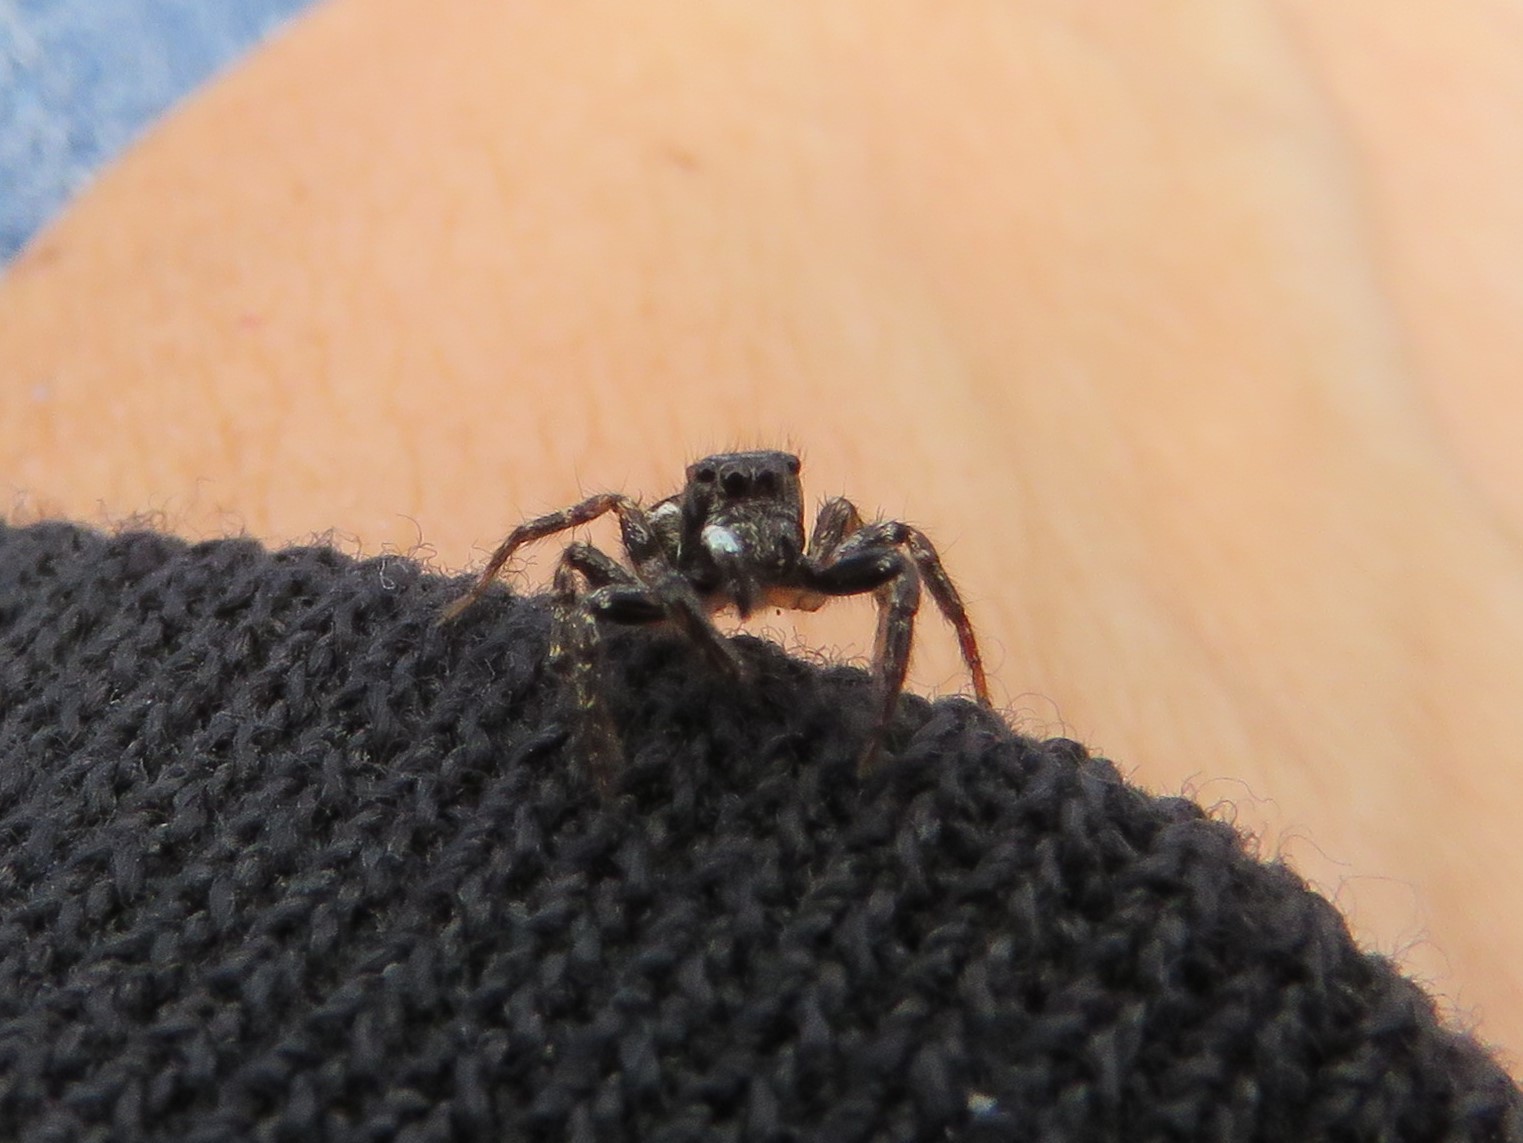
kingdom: Animalia
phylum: Arthropoda
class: Arachnida
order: Araneae
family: Salticidae
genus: Anasaitis
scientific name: Anasaitis canosa
